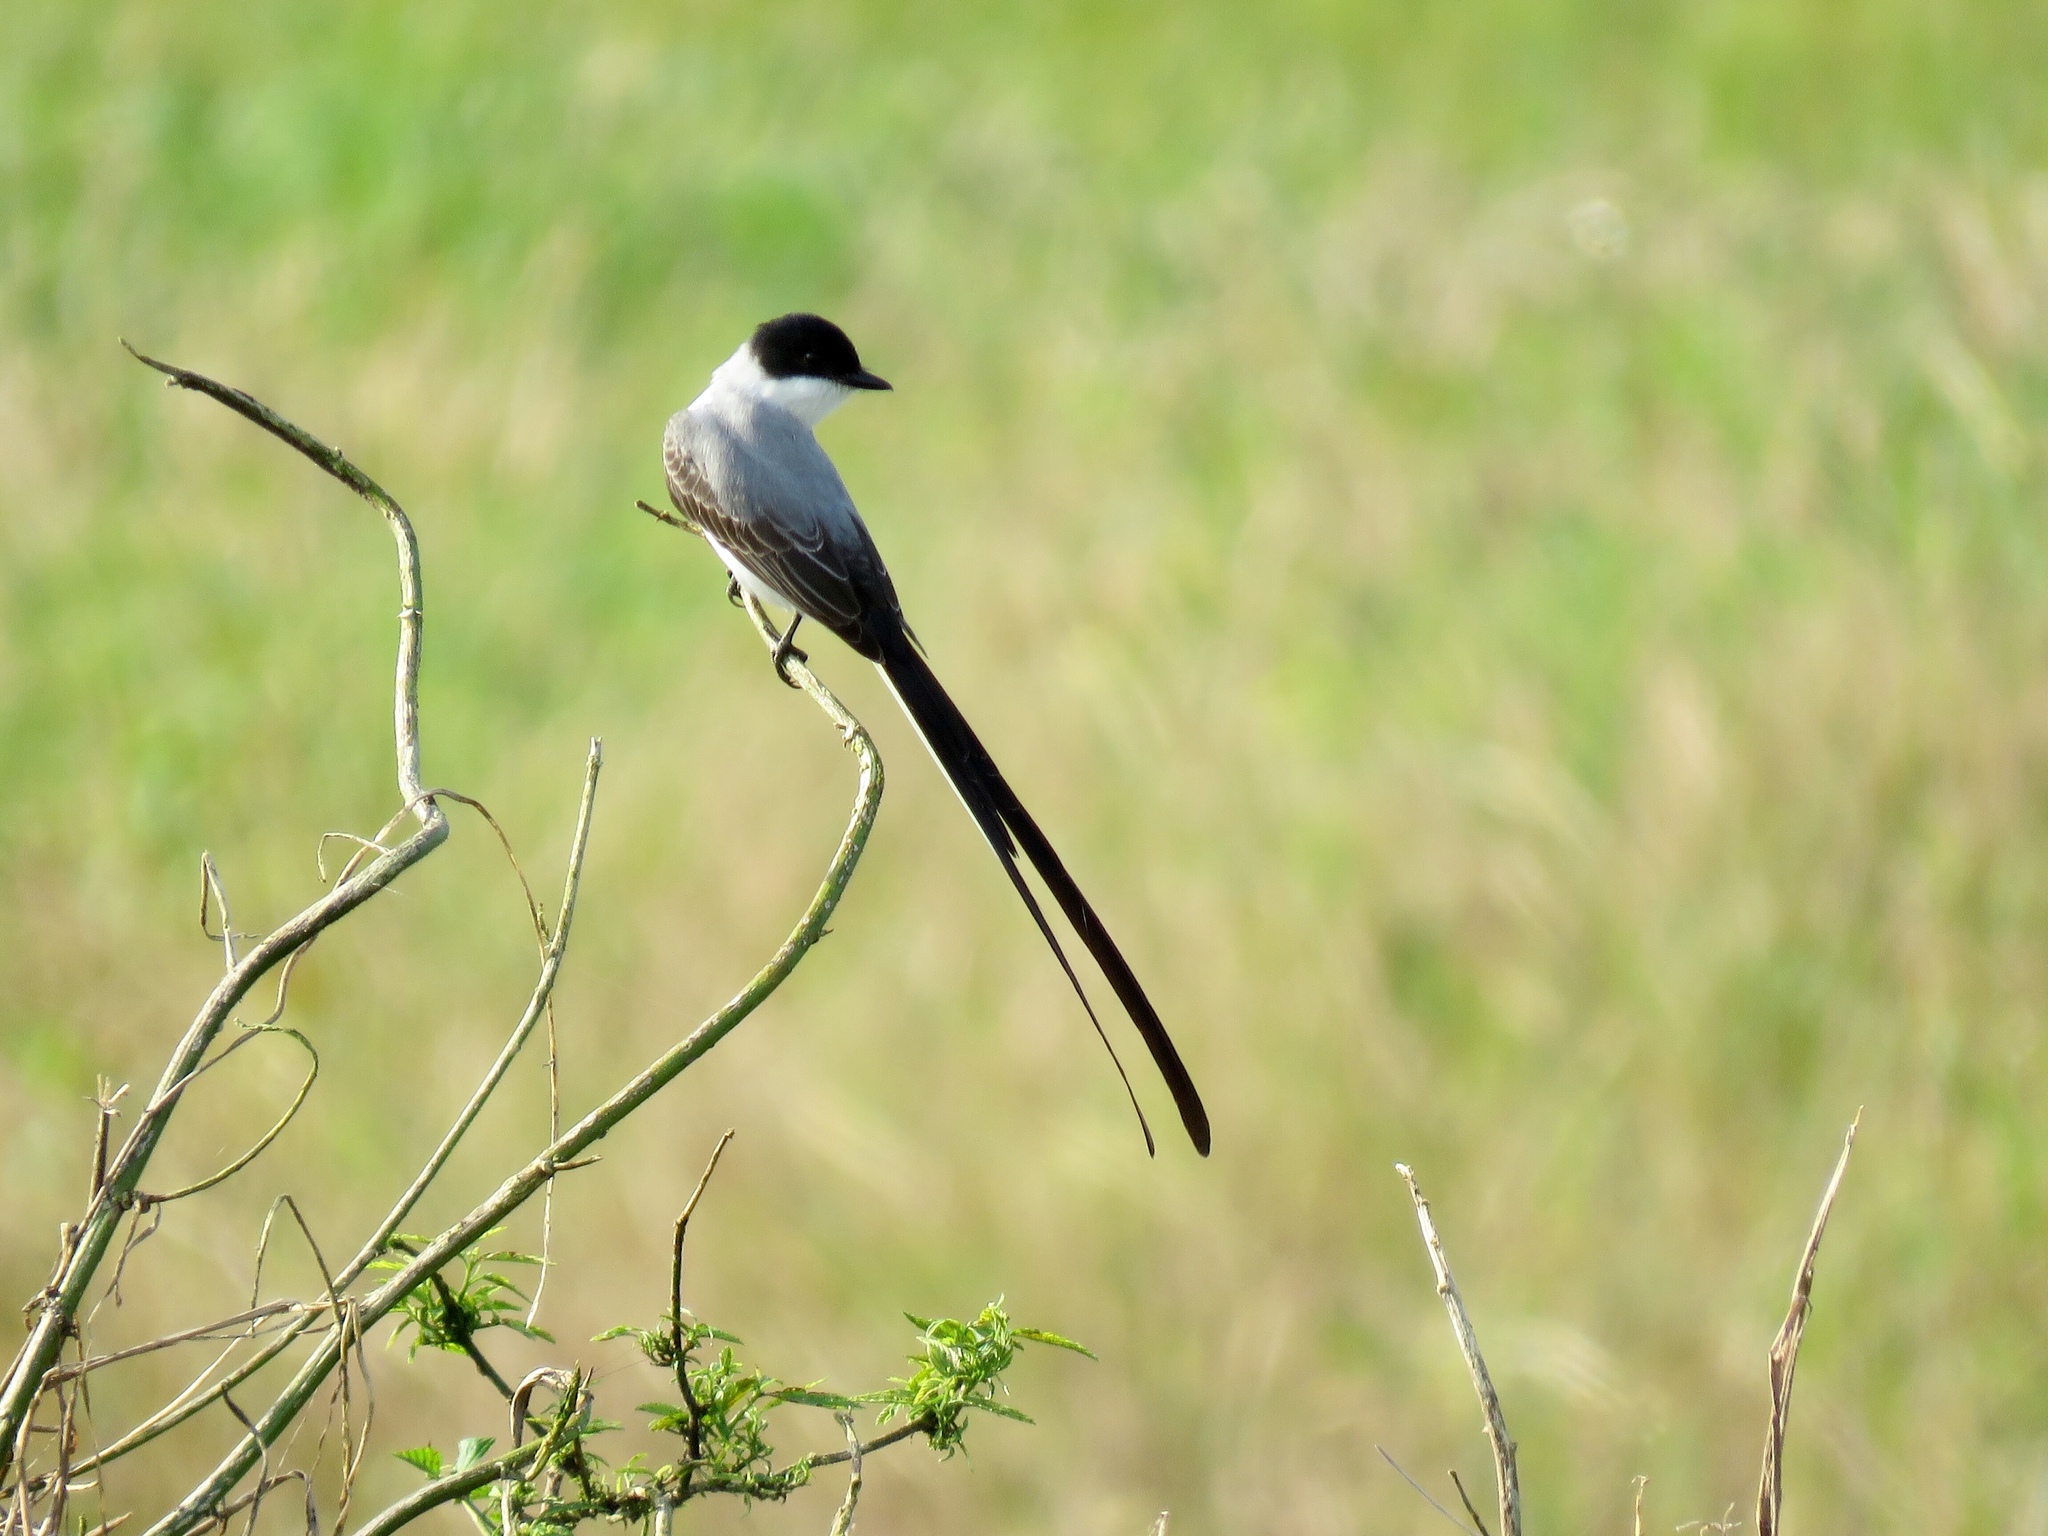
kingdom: Animalia
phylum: Chordata
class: Aves
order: Passeriformes
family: Tyrannidae
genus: Tyrannus
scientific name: Tyrannus savana
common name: Fork-tailed flycatcher
